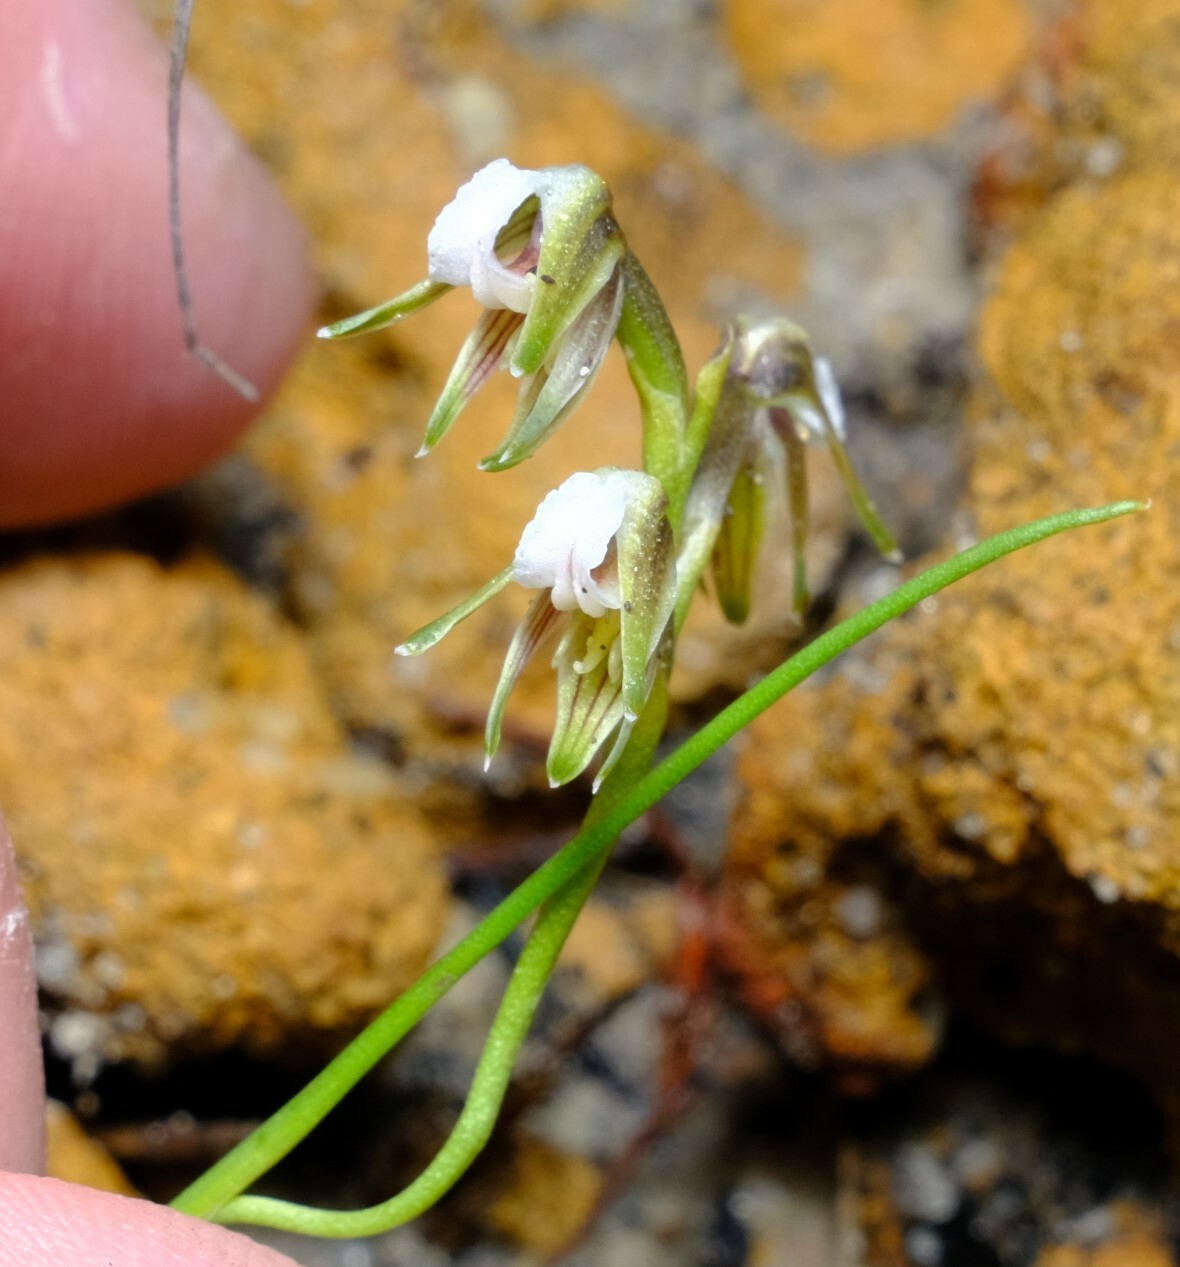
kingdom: Plantae
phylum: Tracheophyta
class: Liliopsida
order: Asparagales
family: Orchidaceae
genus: Prasophyllum
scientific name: Prasophyllum parvifolium
